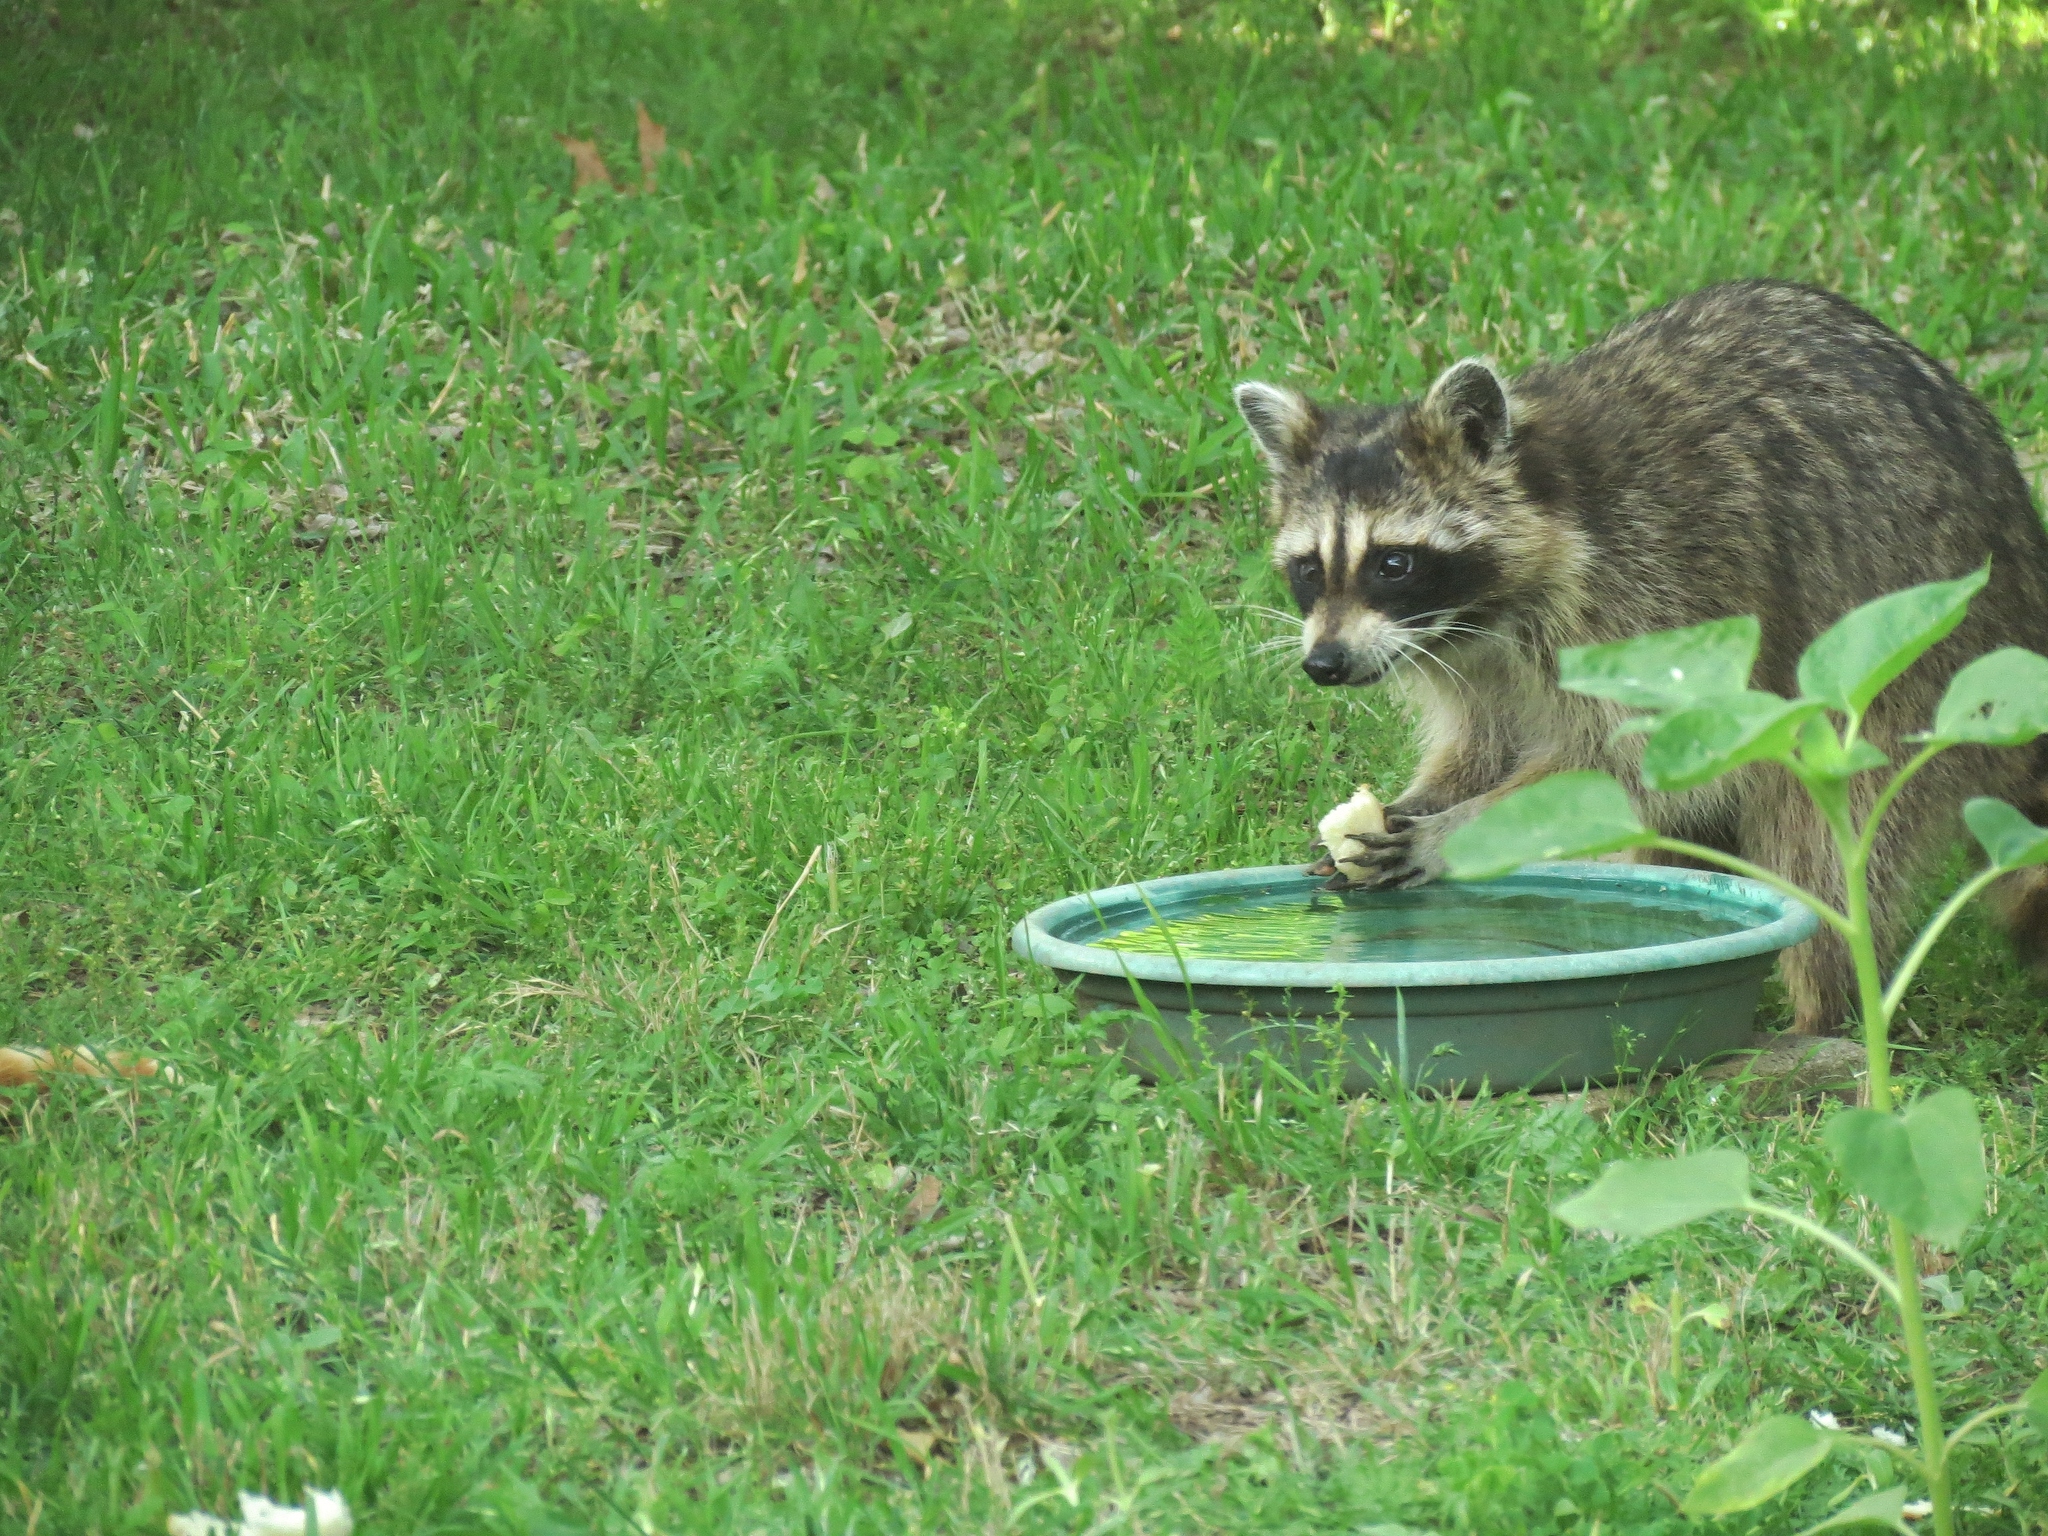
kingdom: Animalia
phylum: Chordata
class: Mammalia
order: Carnivora
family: Procyonidae
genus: Procyon
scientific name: Procyon lotor
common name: Raccoon
